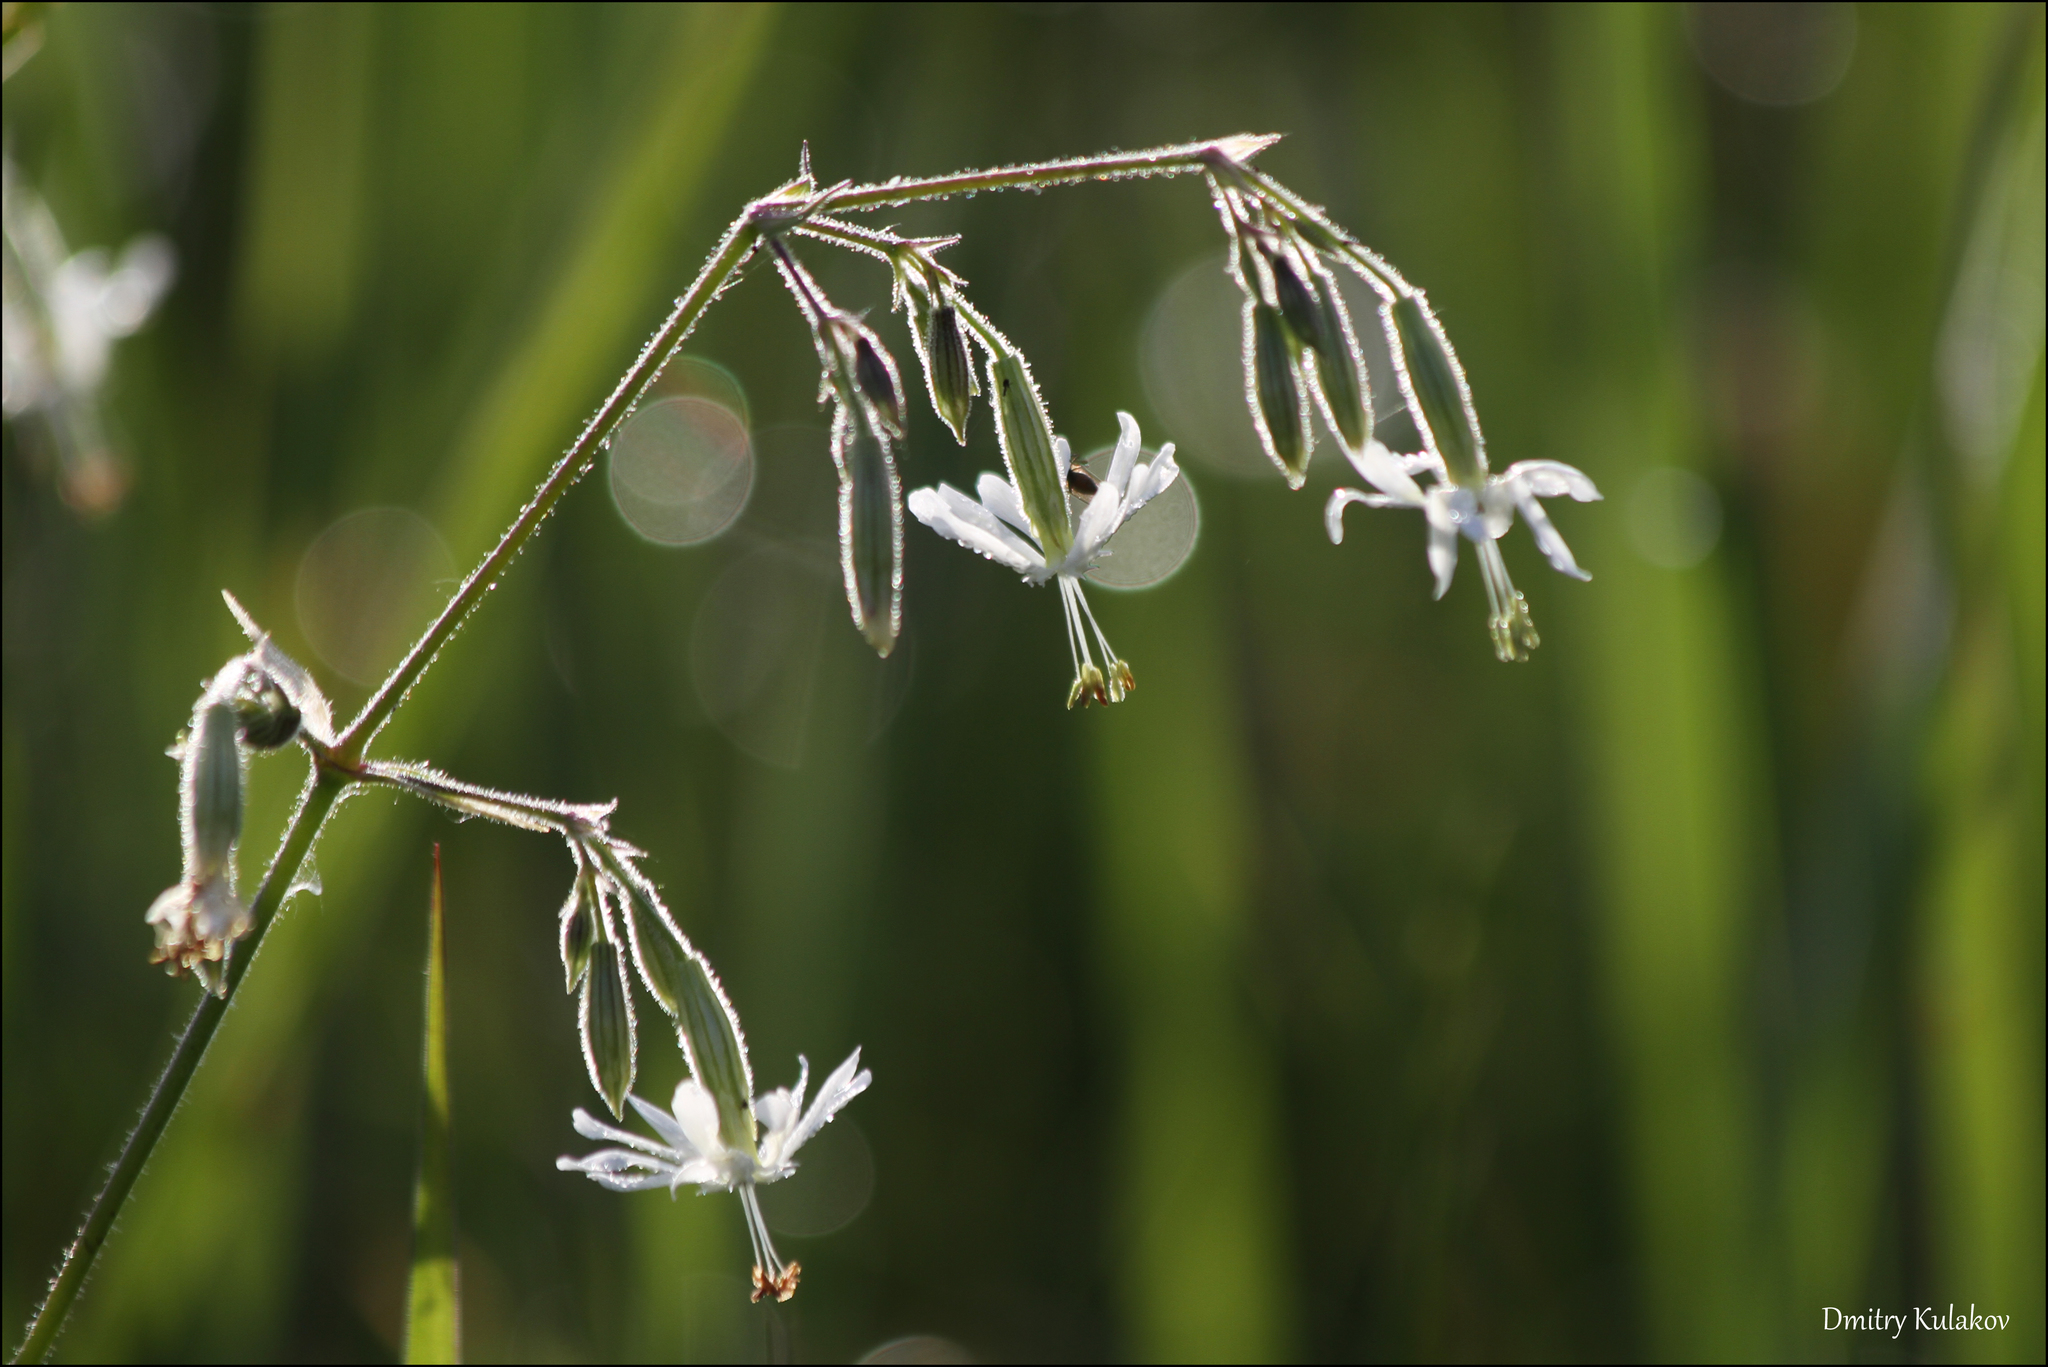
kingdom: Plantae
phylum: Tracheophyta
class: Magnoliopsida
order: Caryophyllales
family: Caryophyllaceae
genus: Silene
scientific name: Silene nutans
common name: Nottingham catchfly
